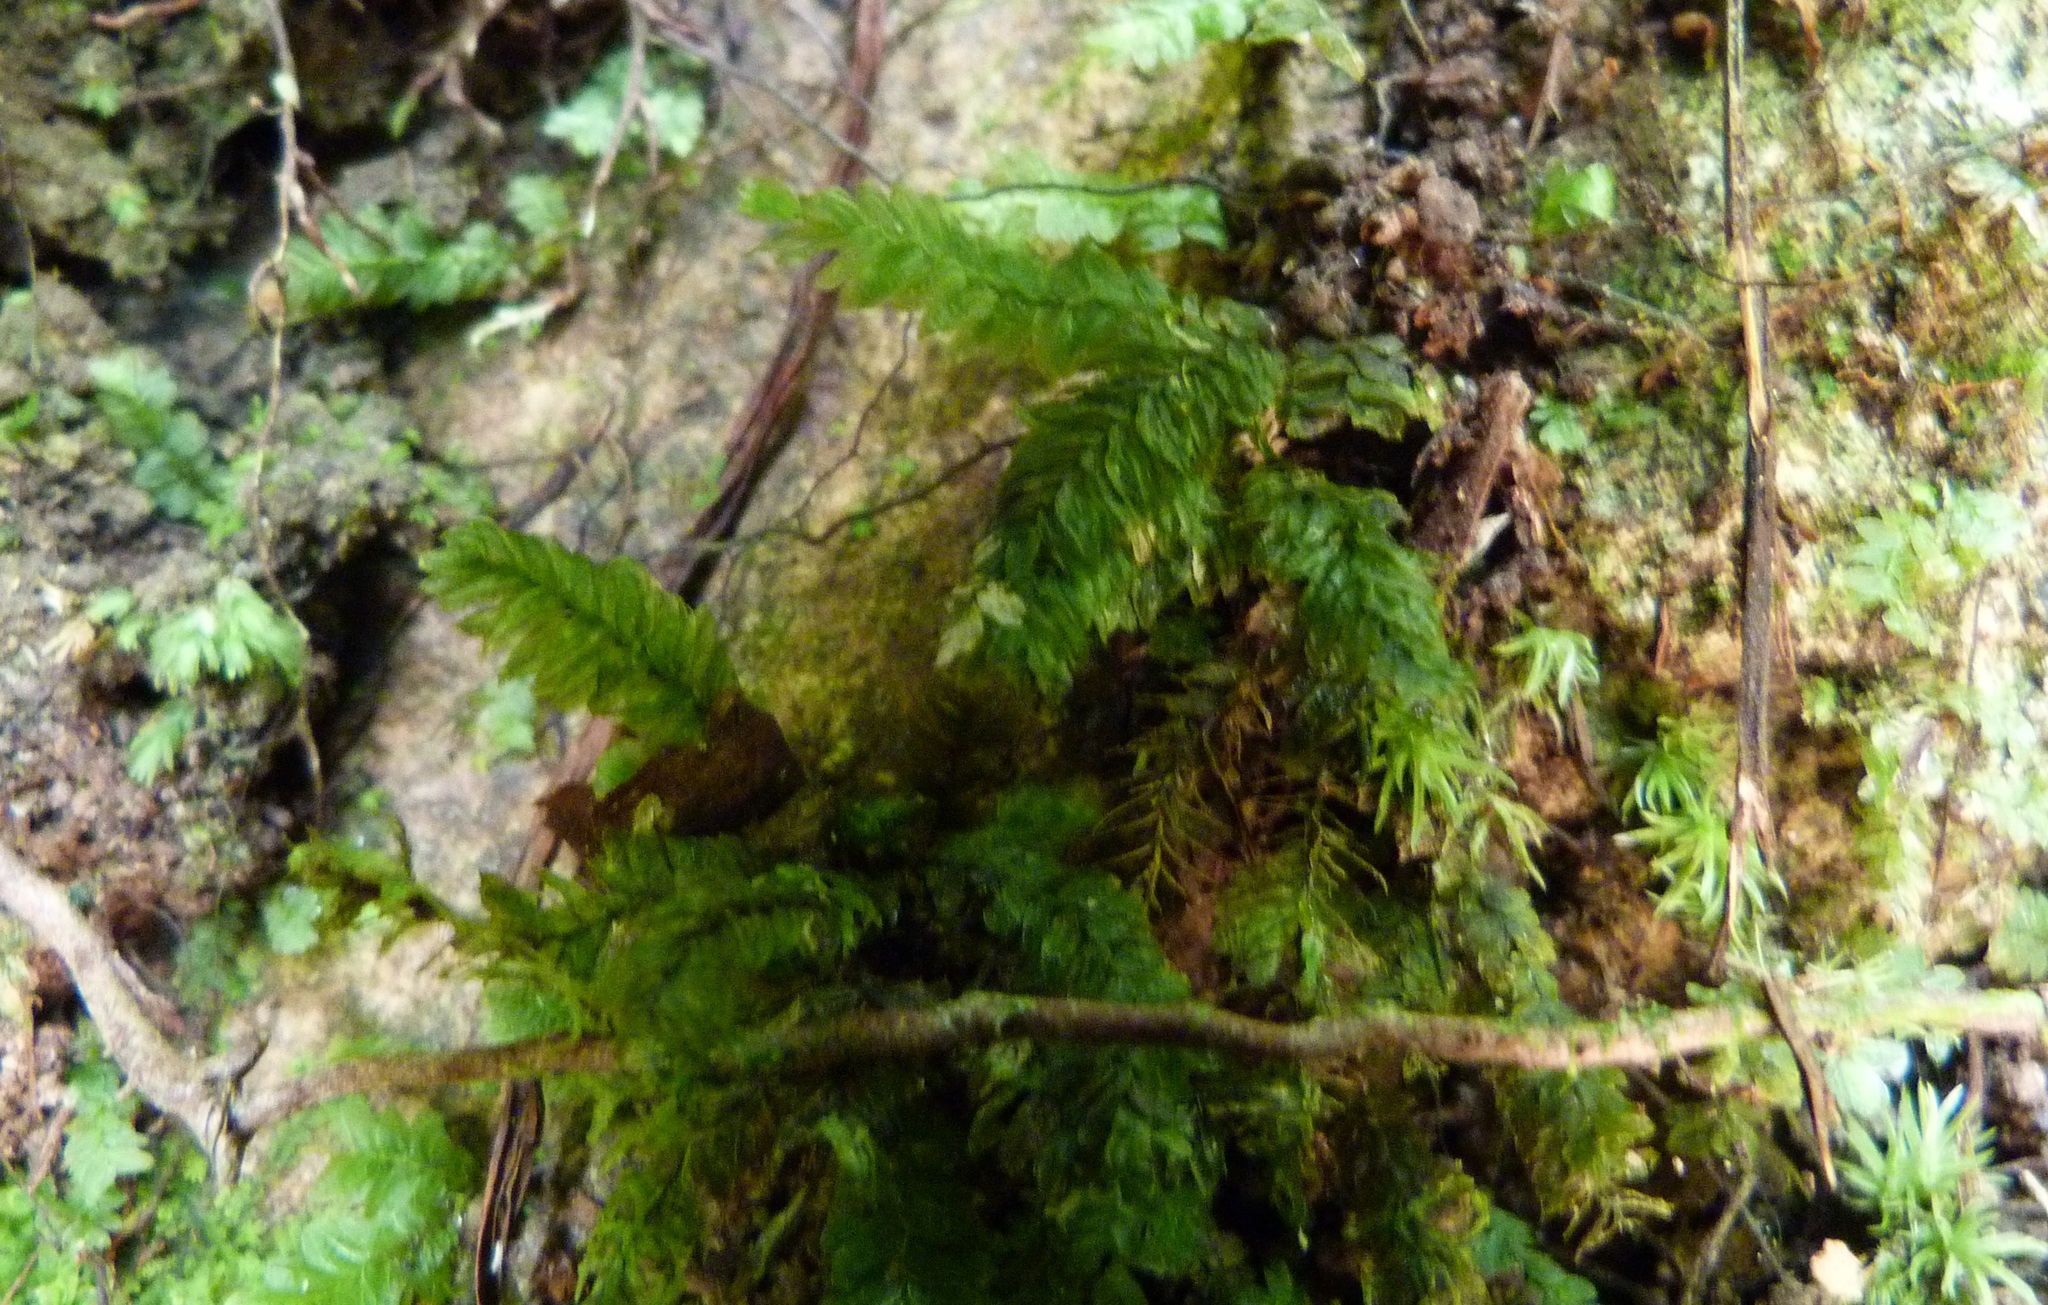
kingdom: Plantae
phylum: Bryophyta
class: Bryopsida
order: Aulacomniales
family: Aulacomniaceae
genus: Mesochaete
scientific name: Mesochaete undulata
